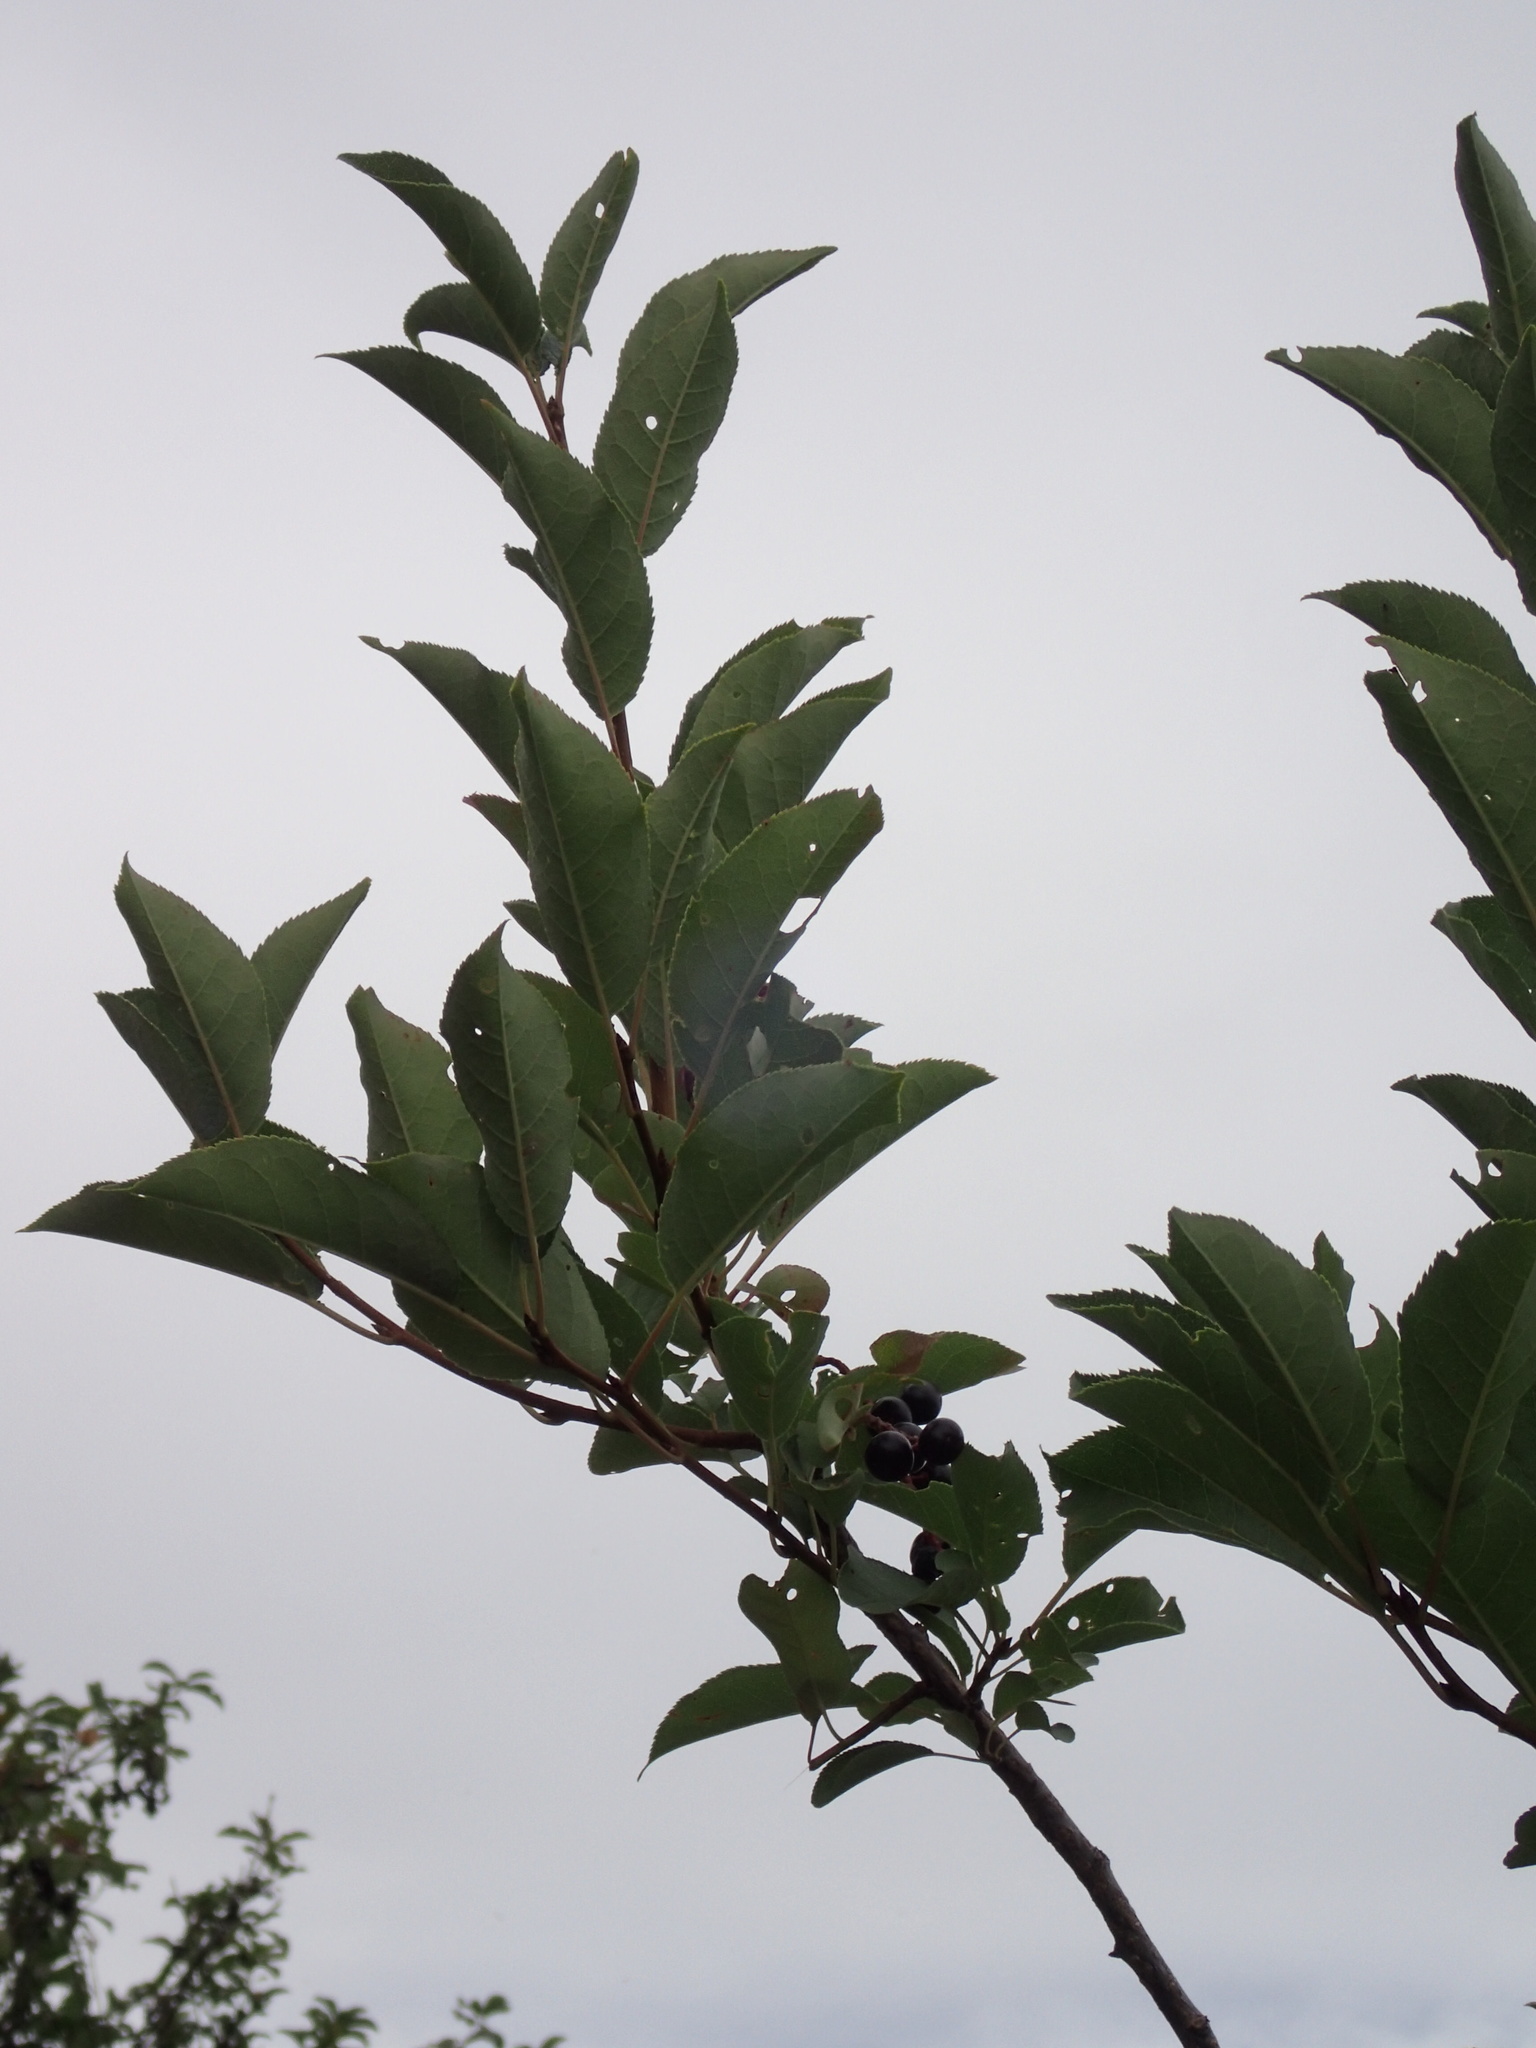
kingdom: Plantae
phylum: Tracheophyta
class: Magnoliopsida
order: Rosales
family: Rosaceae
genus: Prunus
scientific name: Prunus virginiana
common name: Chokecherry
